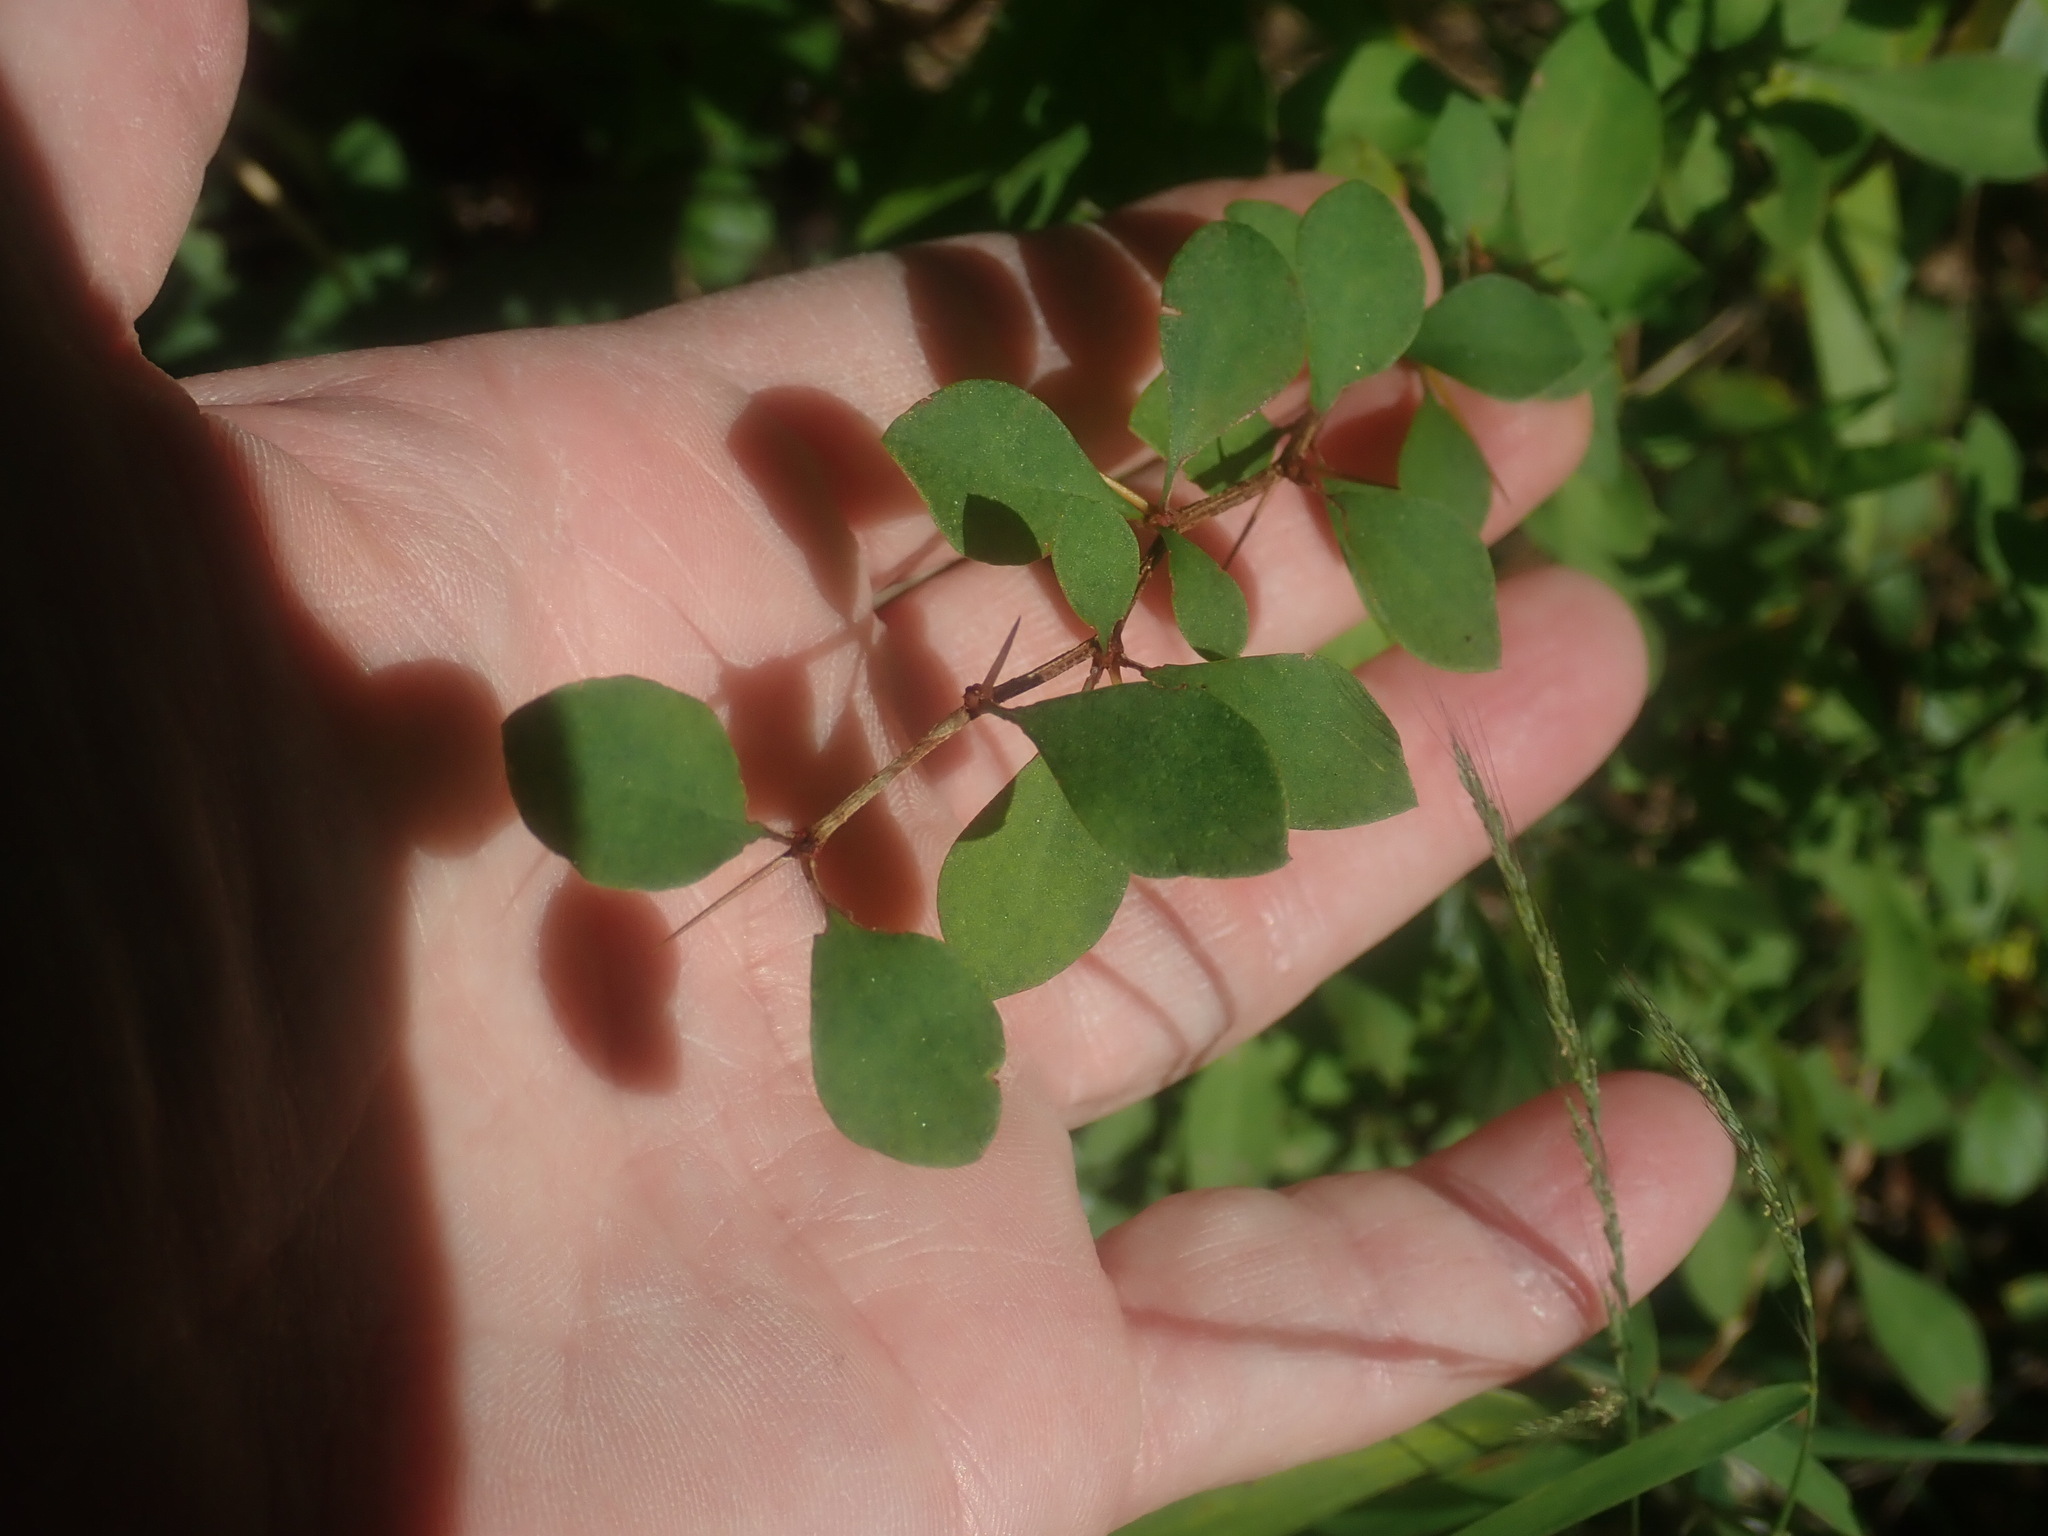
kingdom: Plantae
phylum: Tracheophyta
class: Magnoliopsida
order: Ranunculales
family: Berberidaceae
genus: Berberis
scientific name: Berberis thunbergii
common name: Japanese barberry
